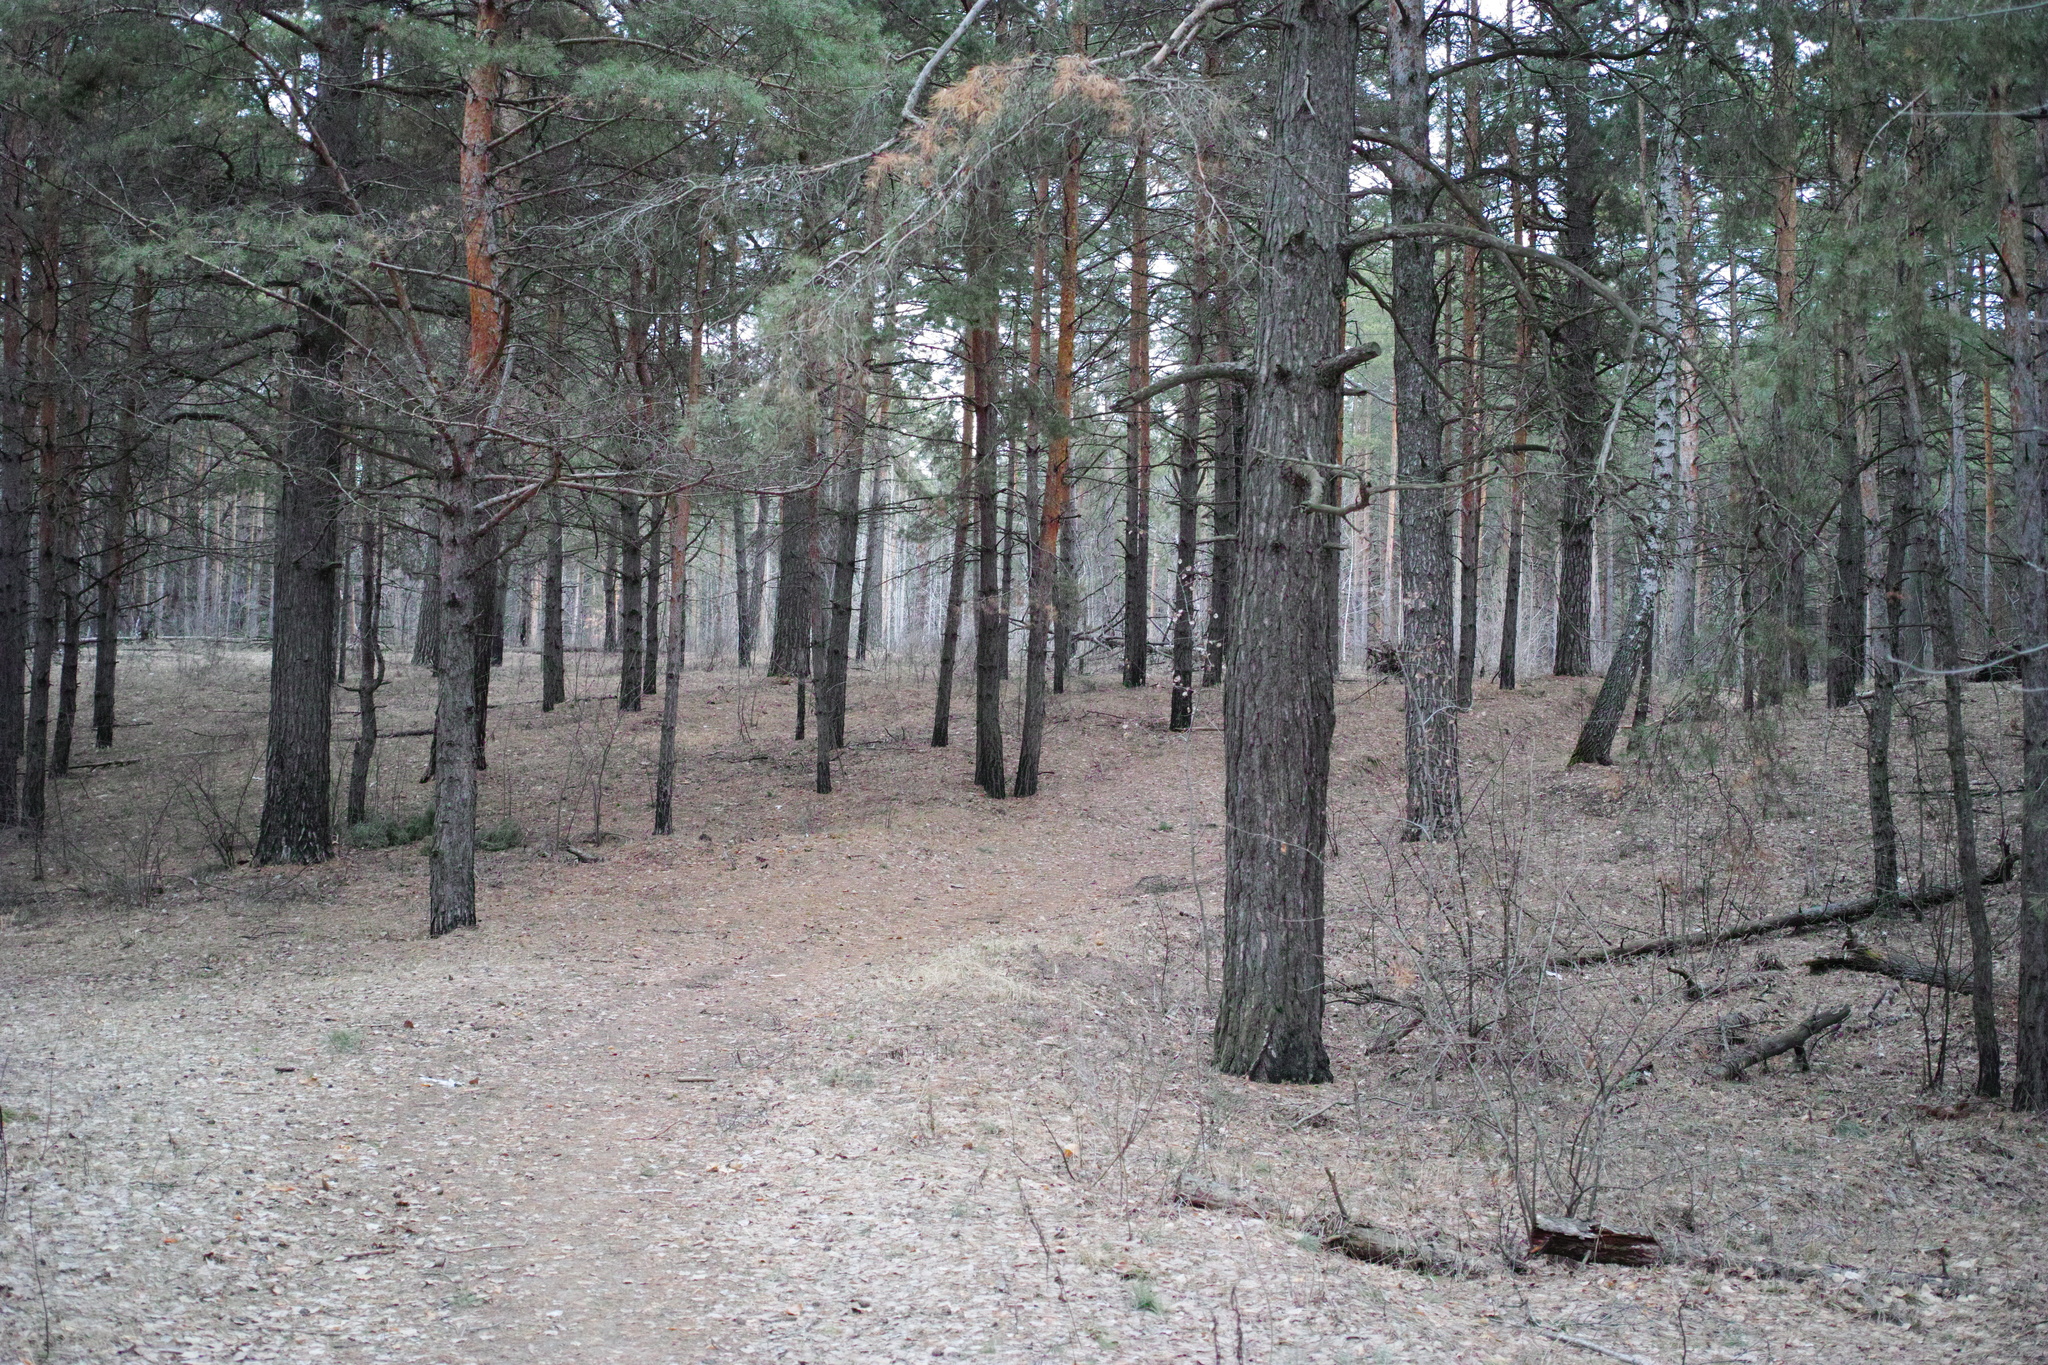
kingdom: Plantae
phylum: Tracheophyta
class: Pinopsida
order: Pinales
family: Pinaceae
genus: Pinus
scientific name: Pinus sylvestris
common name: Scots pine
